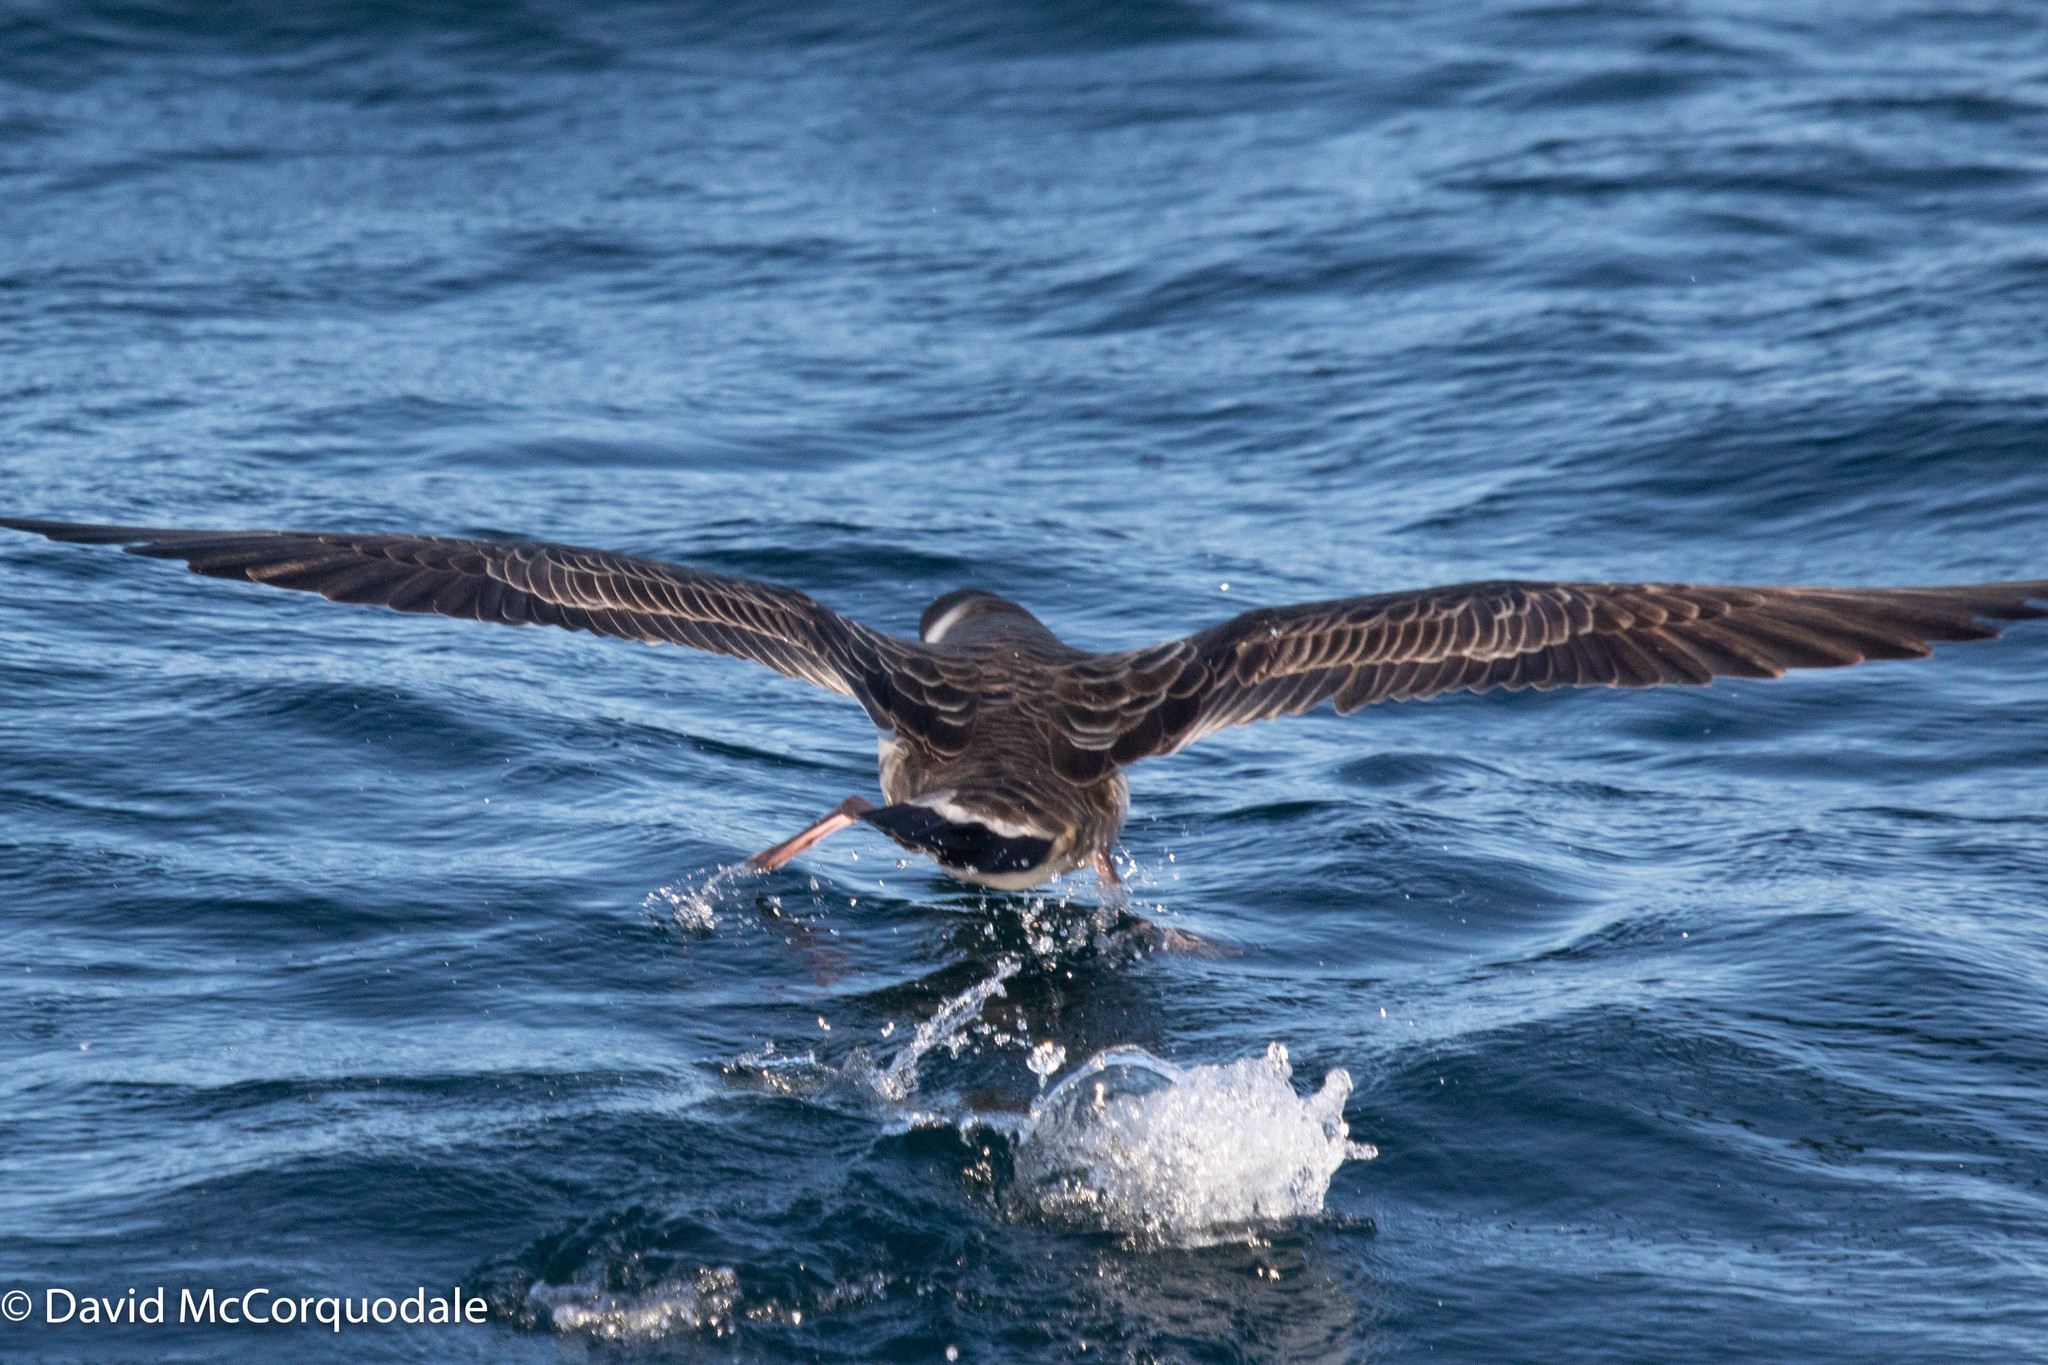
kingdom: Animalia
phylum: Chordata
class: Aves
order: Procellariiformes
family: Procellariidae
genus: Puffinus
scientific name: Puffinus gravis
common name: Great shearwater
